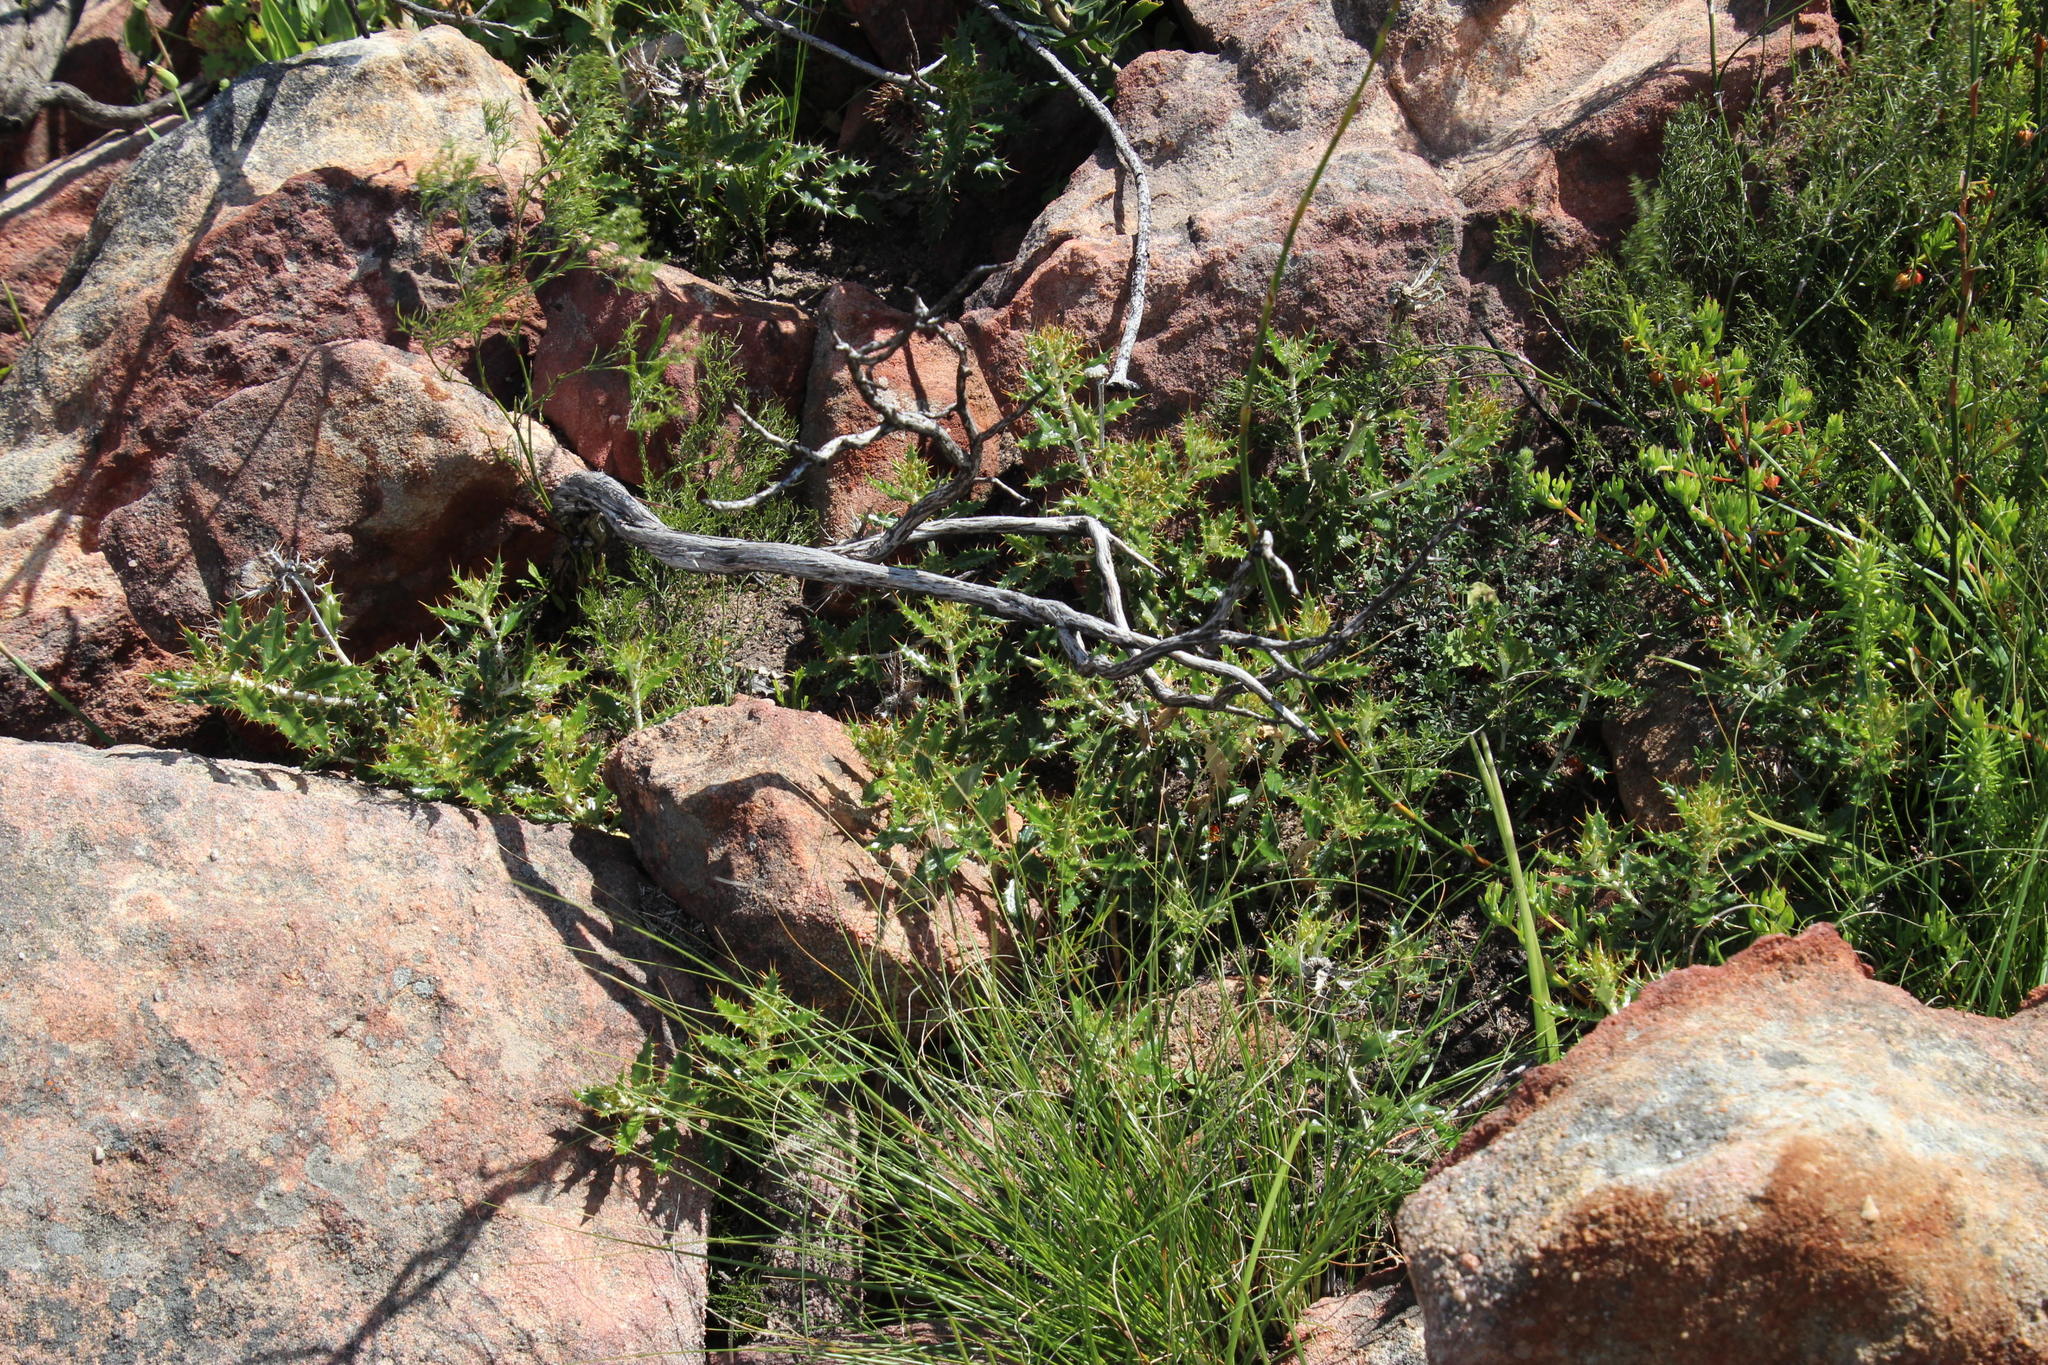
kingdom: Plantae
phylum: Tracheophyta
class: Magnoliopsida
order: Asterales
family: Asteraceae
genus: Berkheya
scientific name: Berkheya barbata
